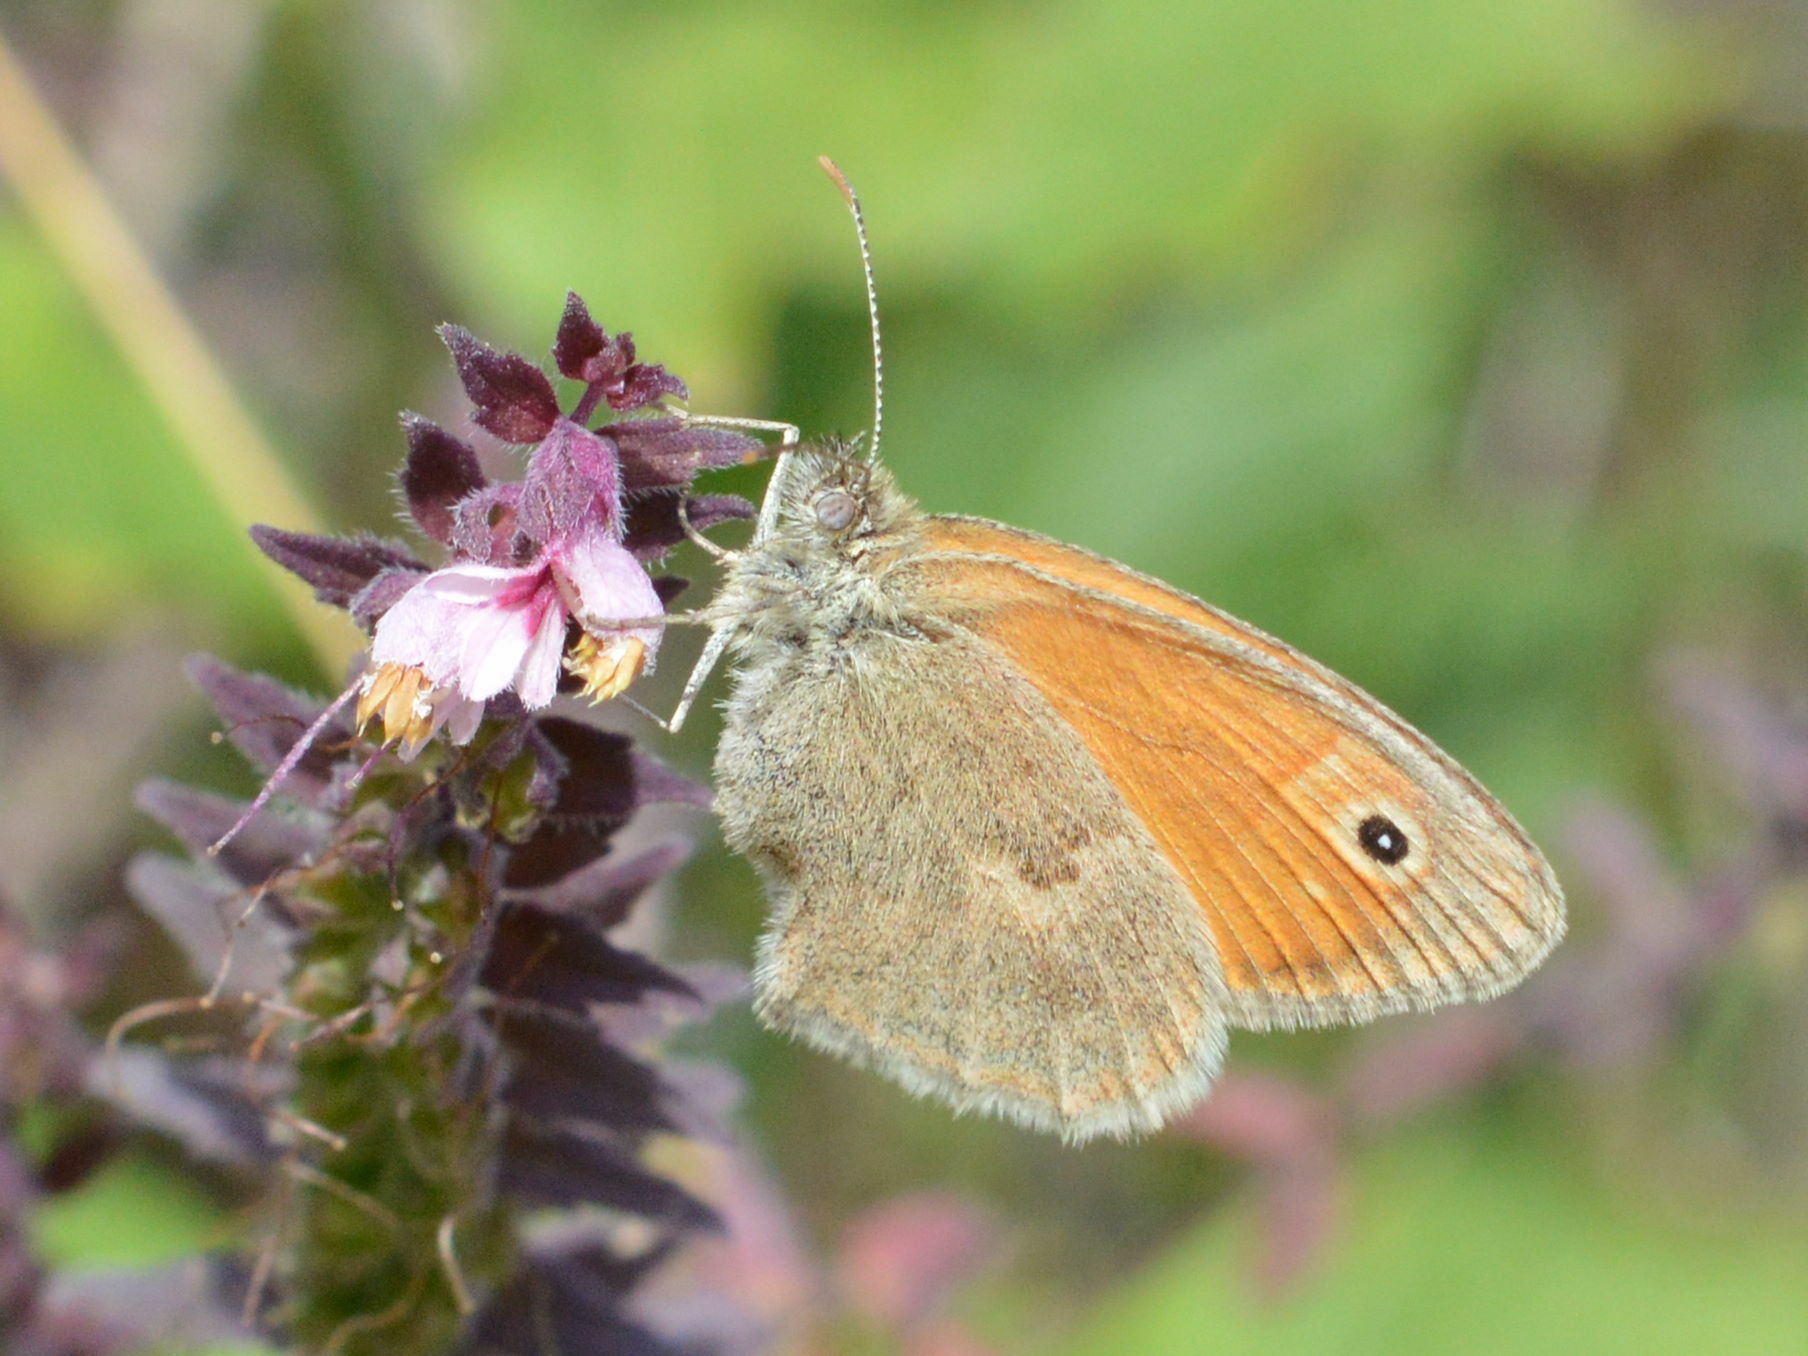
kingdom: Animalia
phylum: Arthropoda
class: Insecta
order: Lepidoptera
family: Nymphalidae
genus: Coenonympha
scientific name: Coenonympha pamphilus
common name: Small heath
